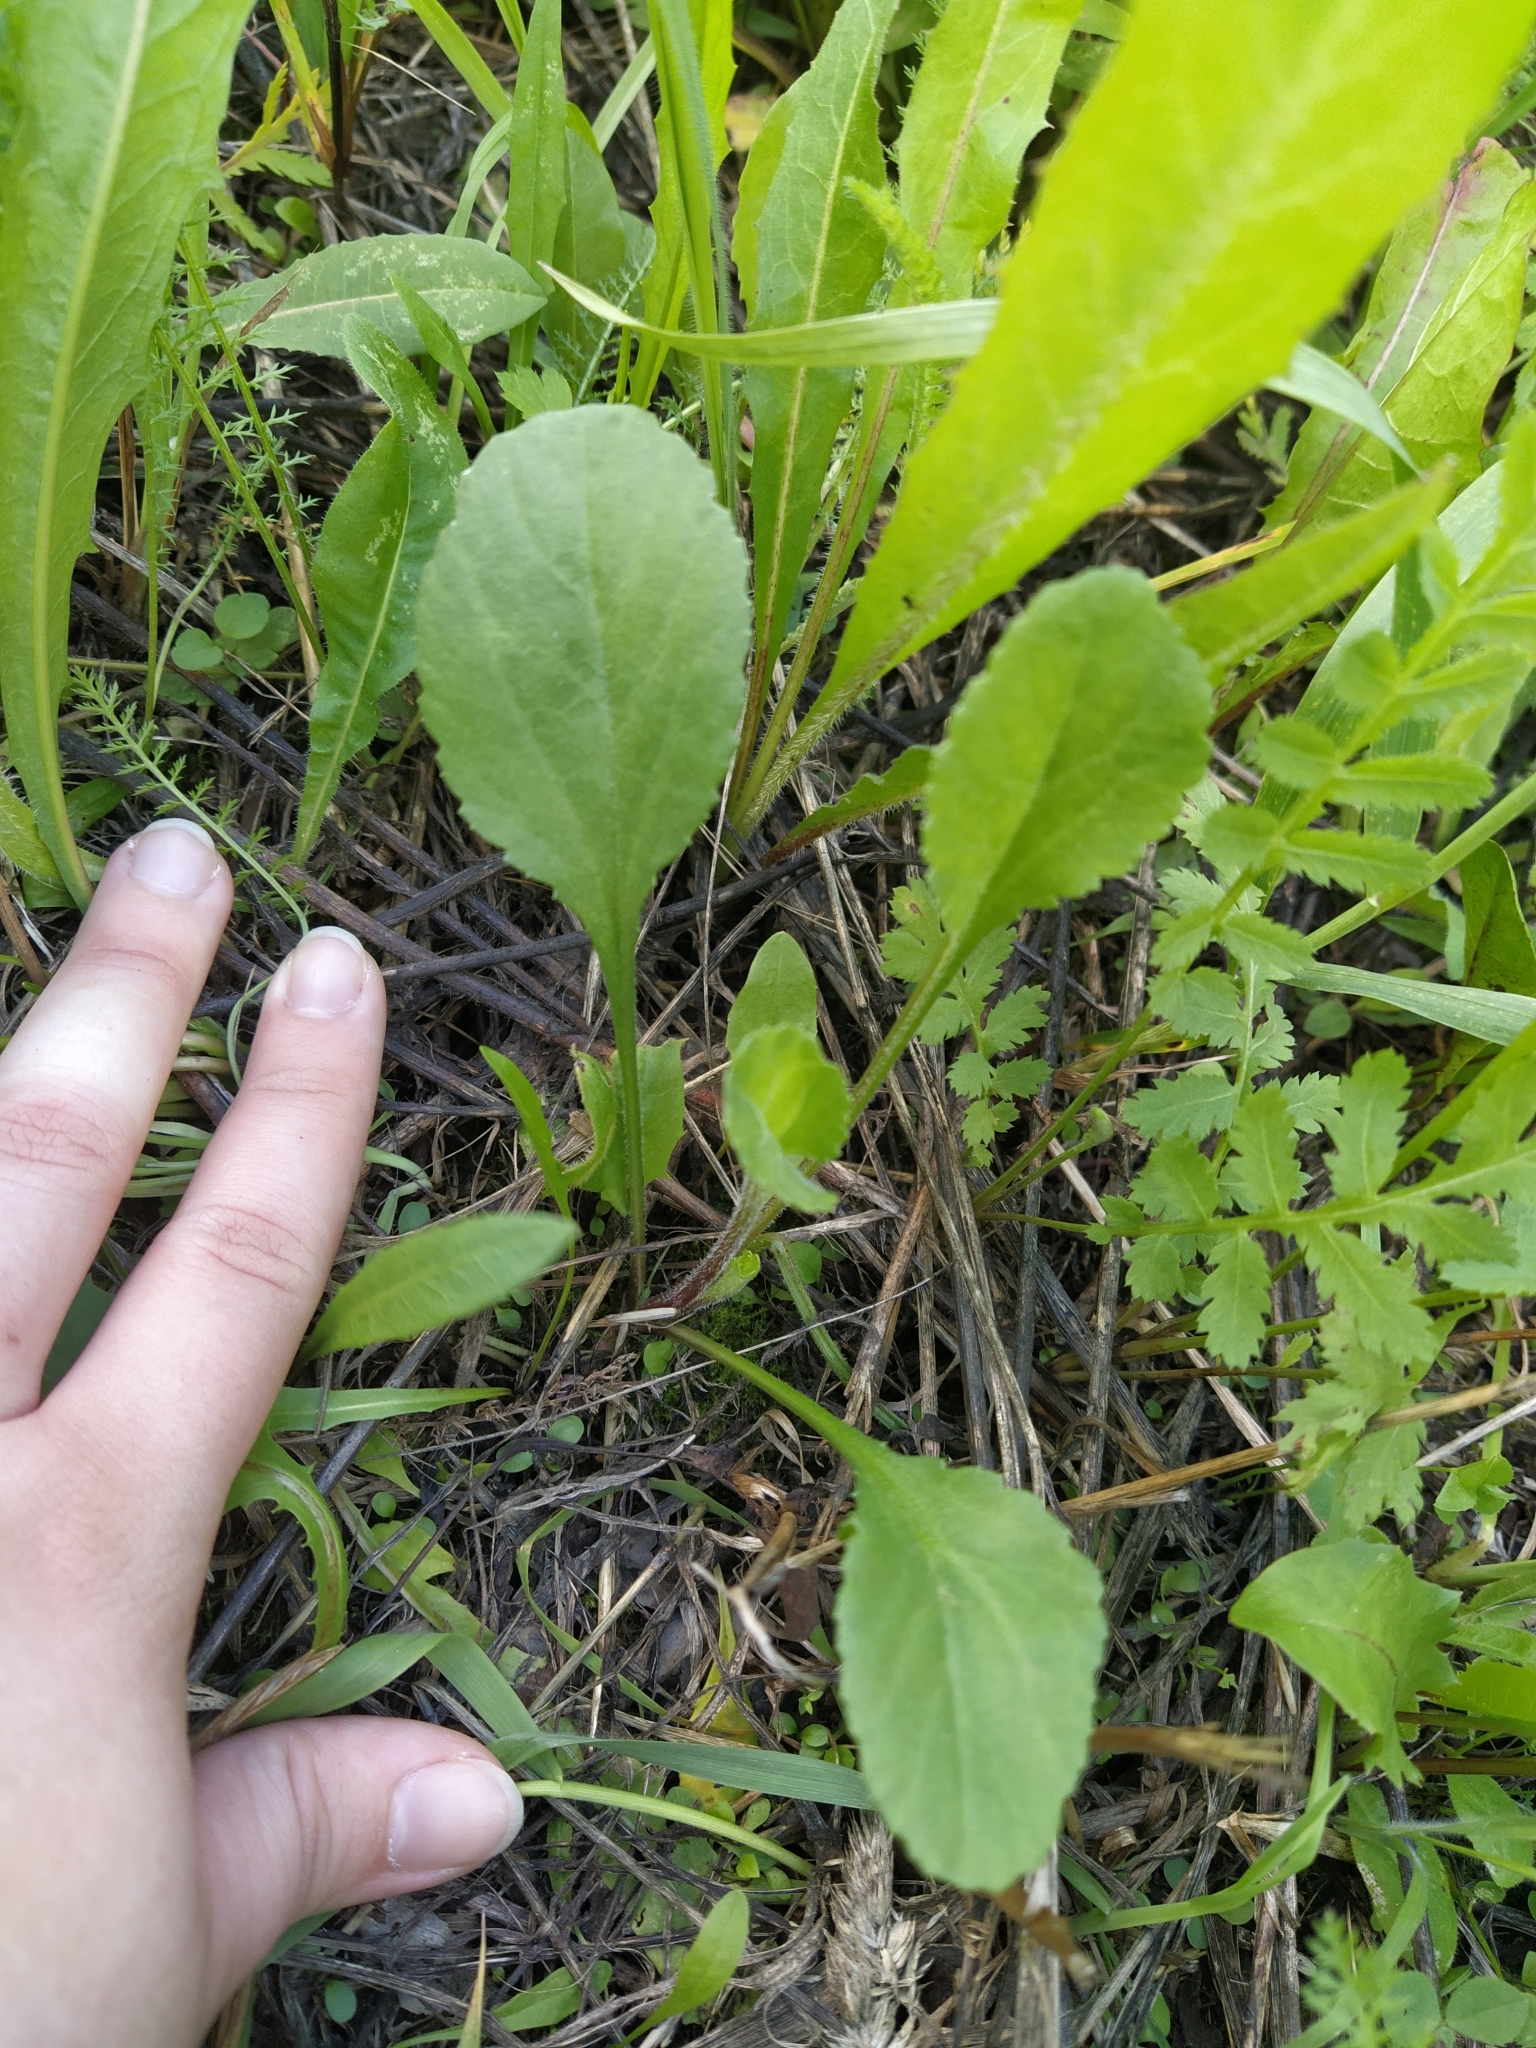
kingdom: Plantae
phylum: Tracheophyta
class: Magnoliopsida
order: Asterales
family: Asteraceae
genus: Leucanthemum
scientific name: Leucanthemum vulgare
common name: Oxeye daisy
